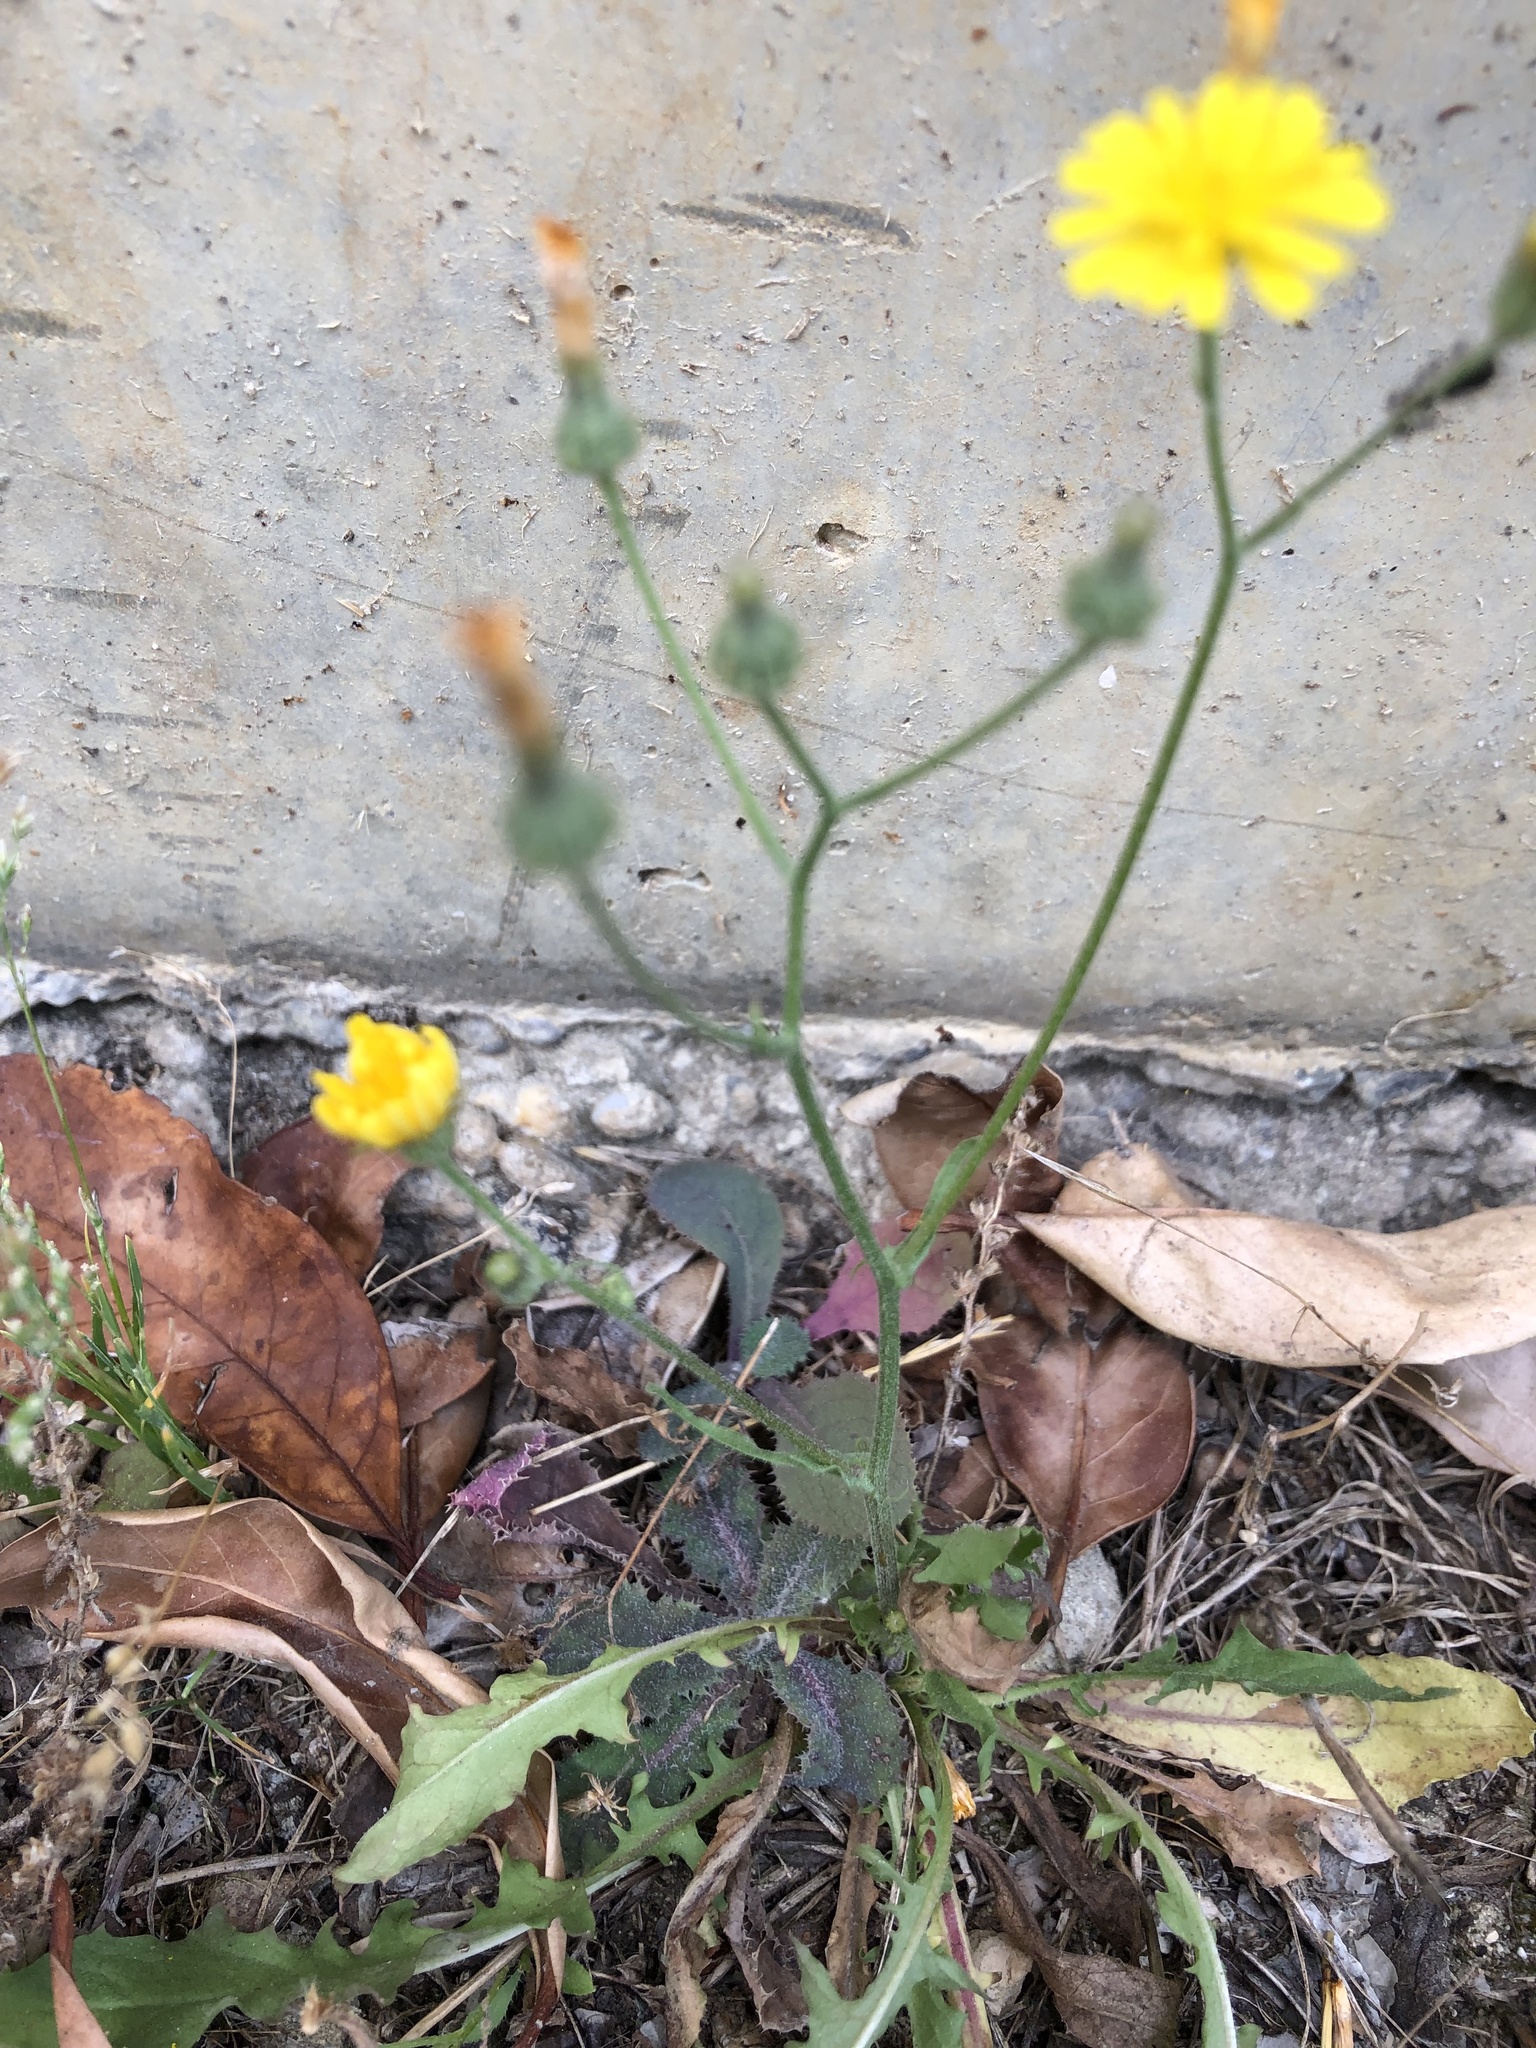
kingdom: Plantae
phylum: Tracheophyta
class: Magnoliopsida
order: Asterales
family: Asteraceae
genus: Crepis
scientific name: Crepis capillaris
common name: Smooth hawksbeard
